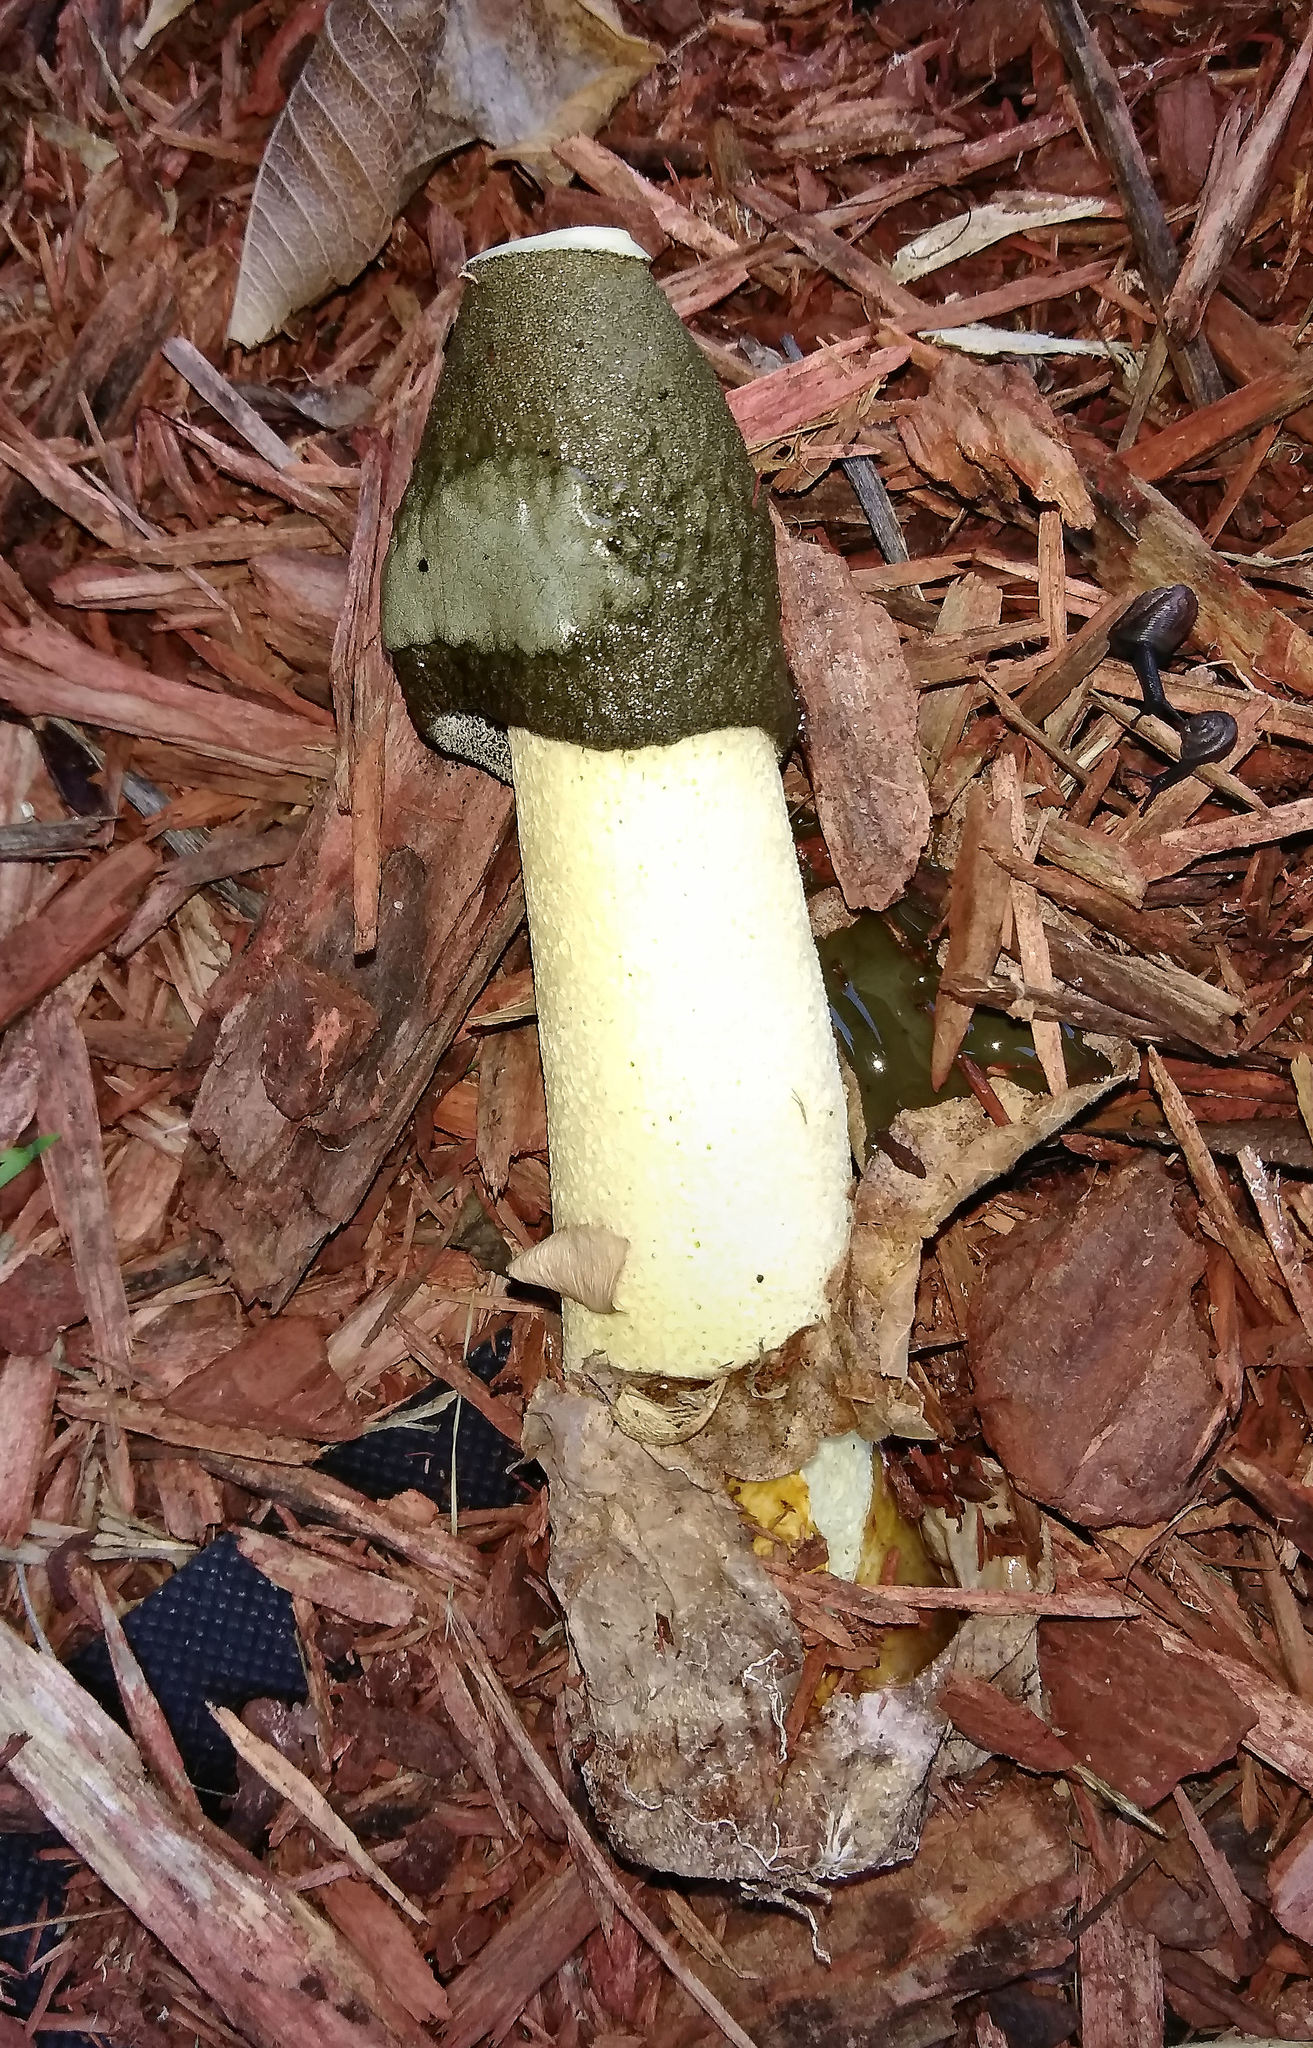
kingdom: Fungi
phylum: Basidiomycota
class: Agaricomycetes
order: Phallales
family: Phallaceae
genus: Phallus
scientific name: Phallus ravenelii
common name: Ravenel's stinkhorn
